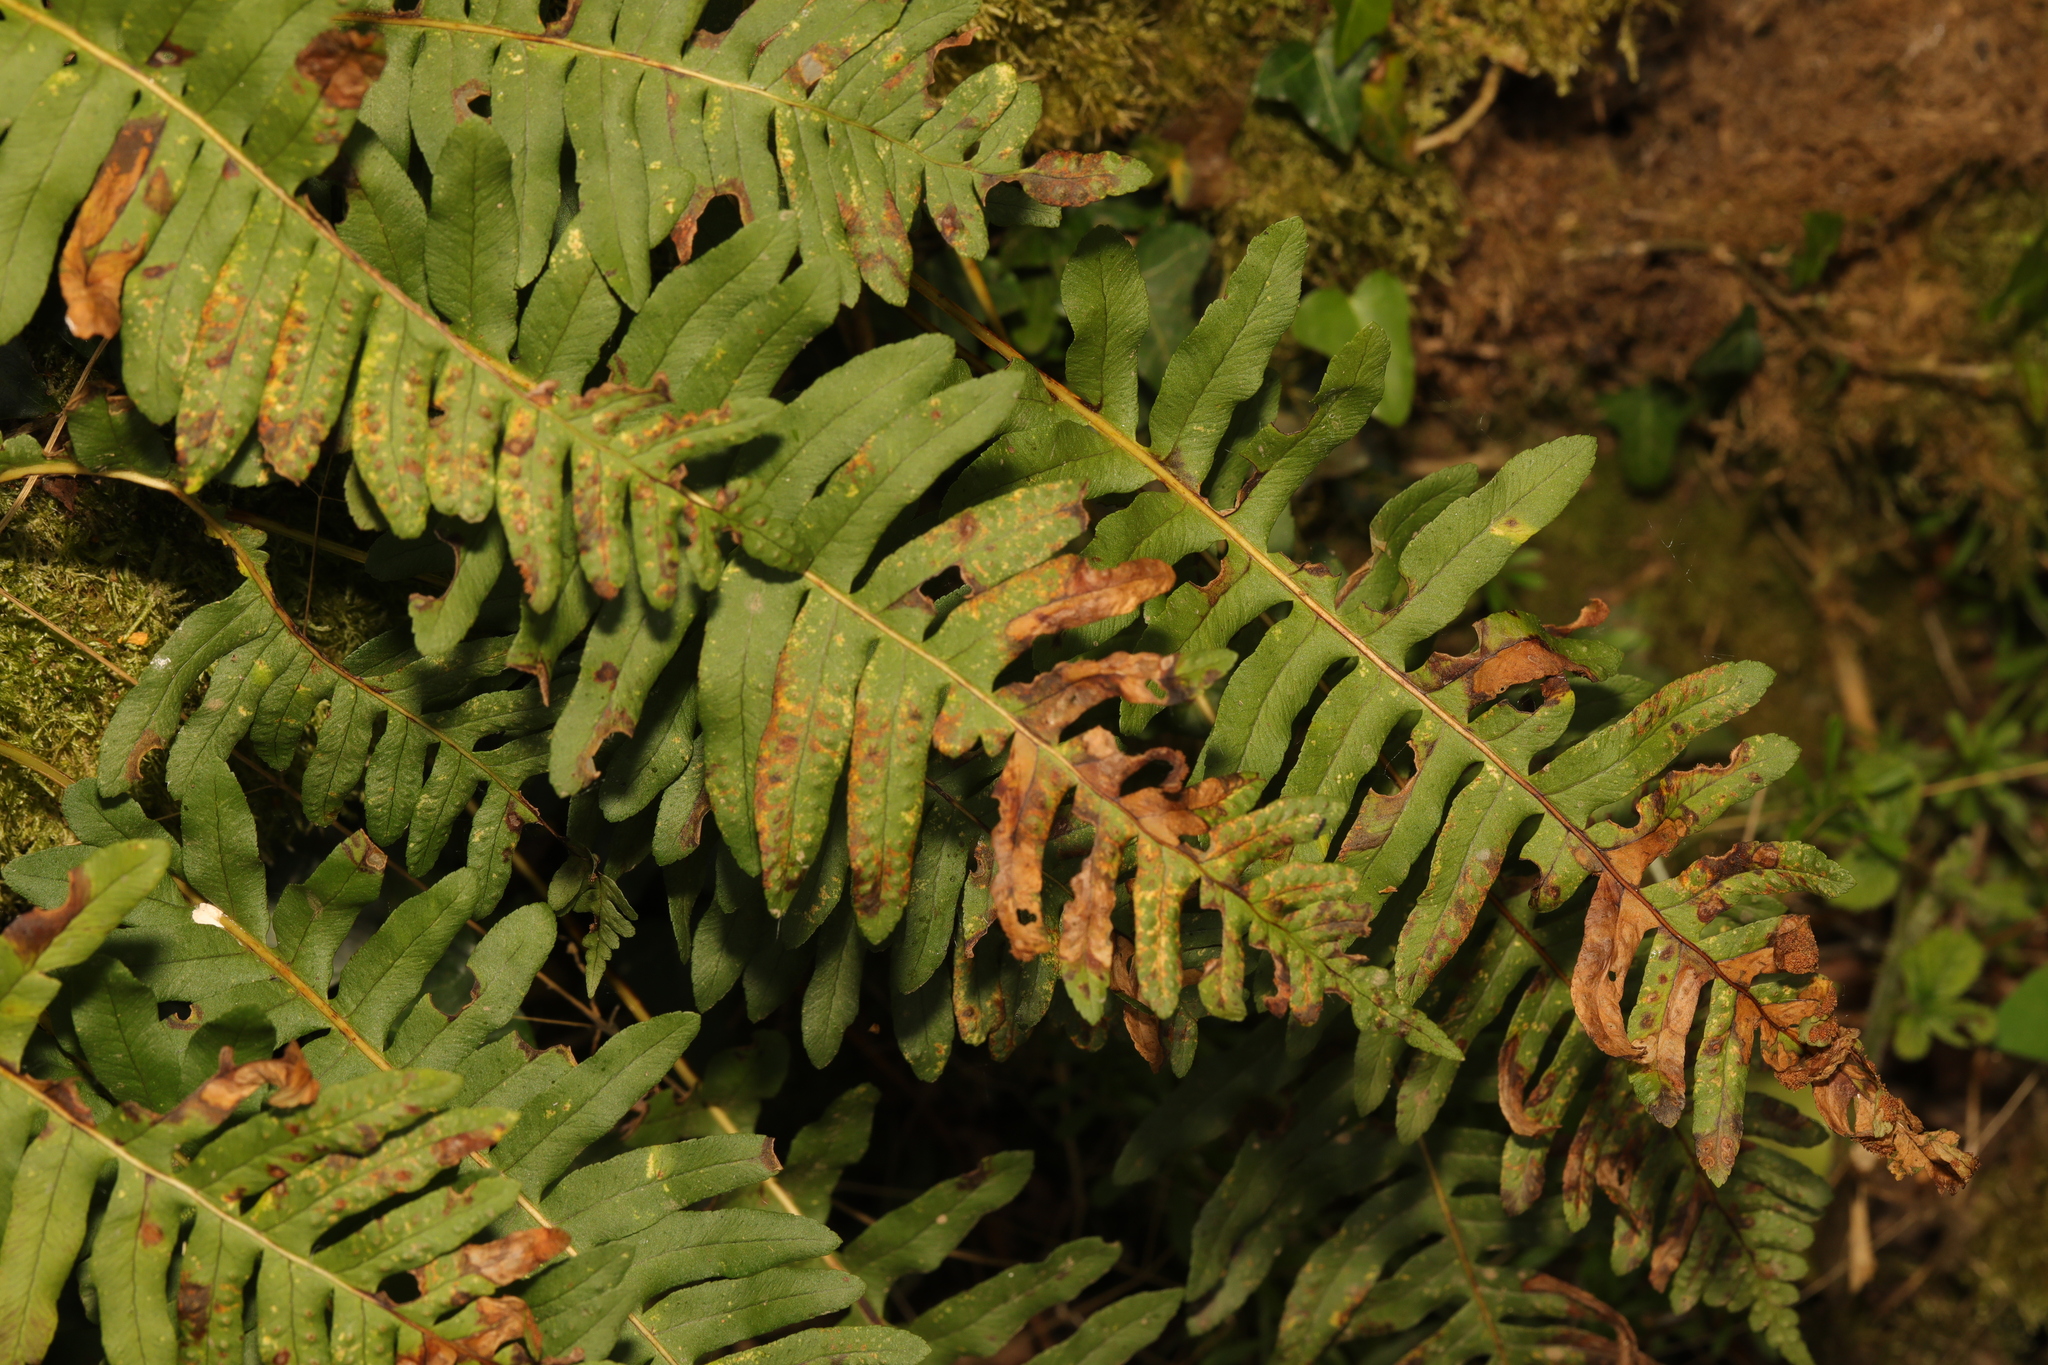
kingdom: Plantae
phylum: Tracheophyta
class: Polypodiopsida
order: Polypodiales
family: Polypodiaceae
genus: Polypodium
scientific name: Polypodium
